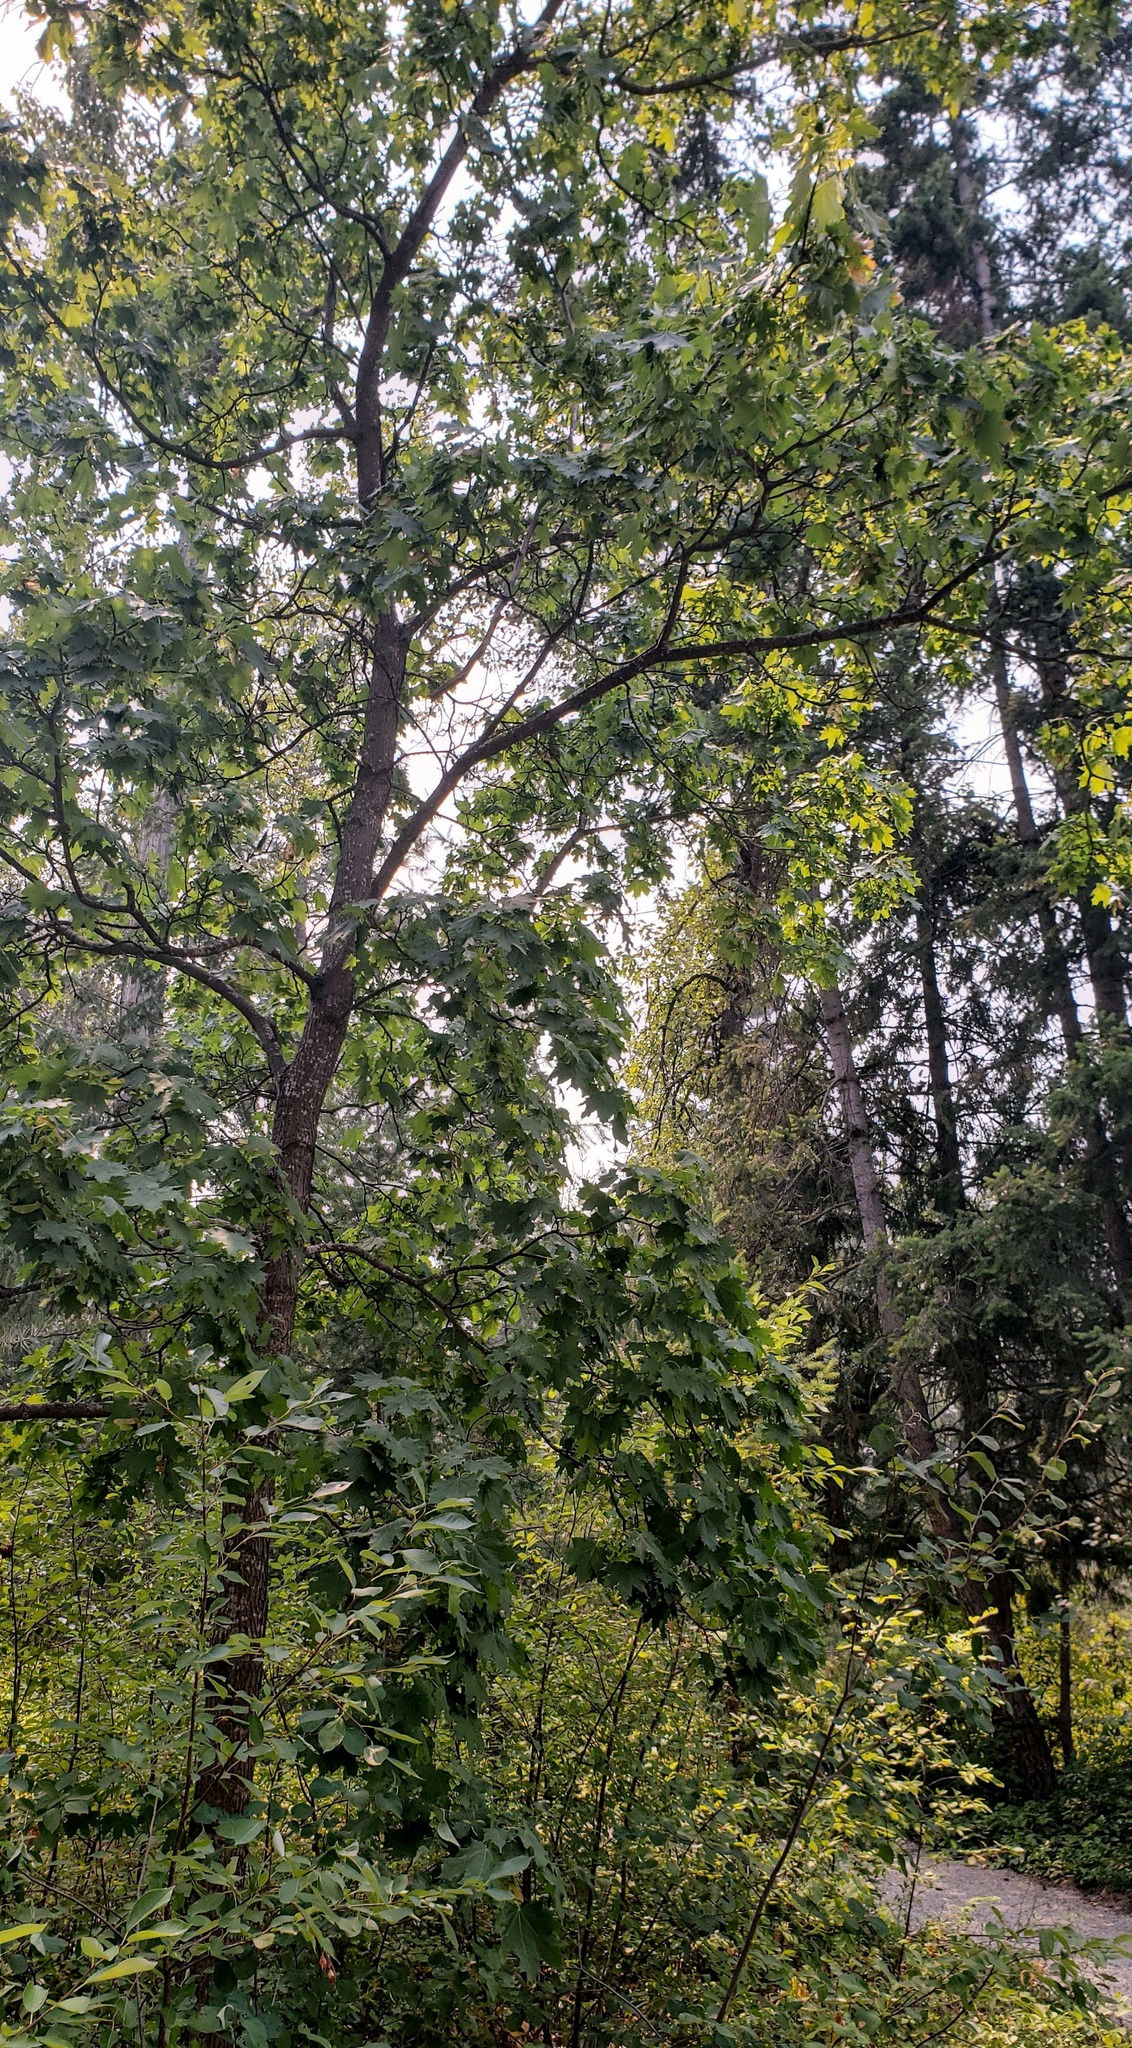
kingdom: Plantae
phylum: Tracheophyta
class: Magnoliopsida
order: Sapindales
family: Sapindaceae
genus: Acer
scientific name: Acer platanoides
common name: Norway maple
